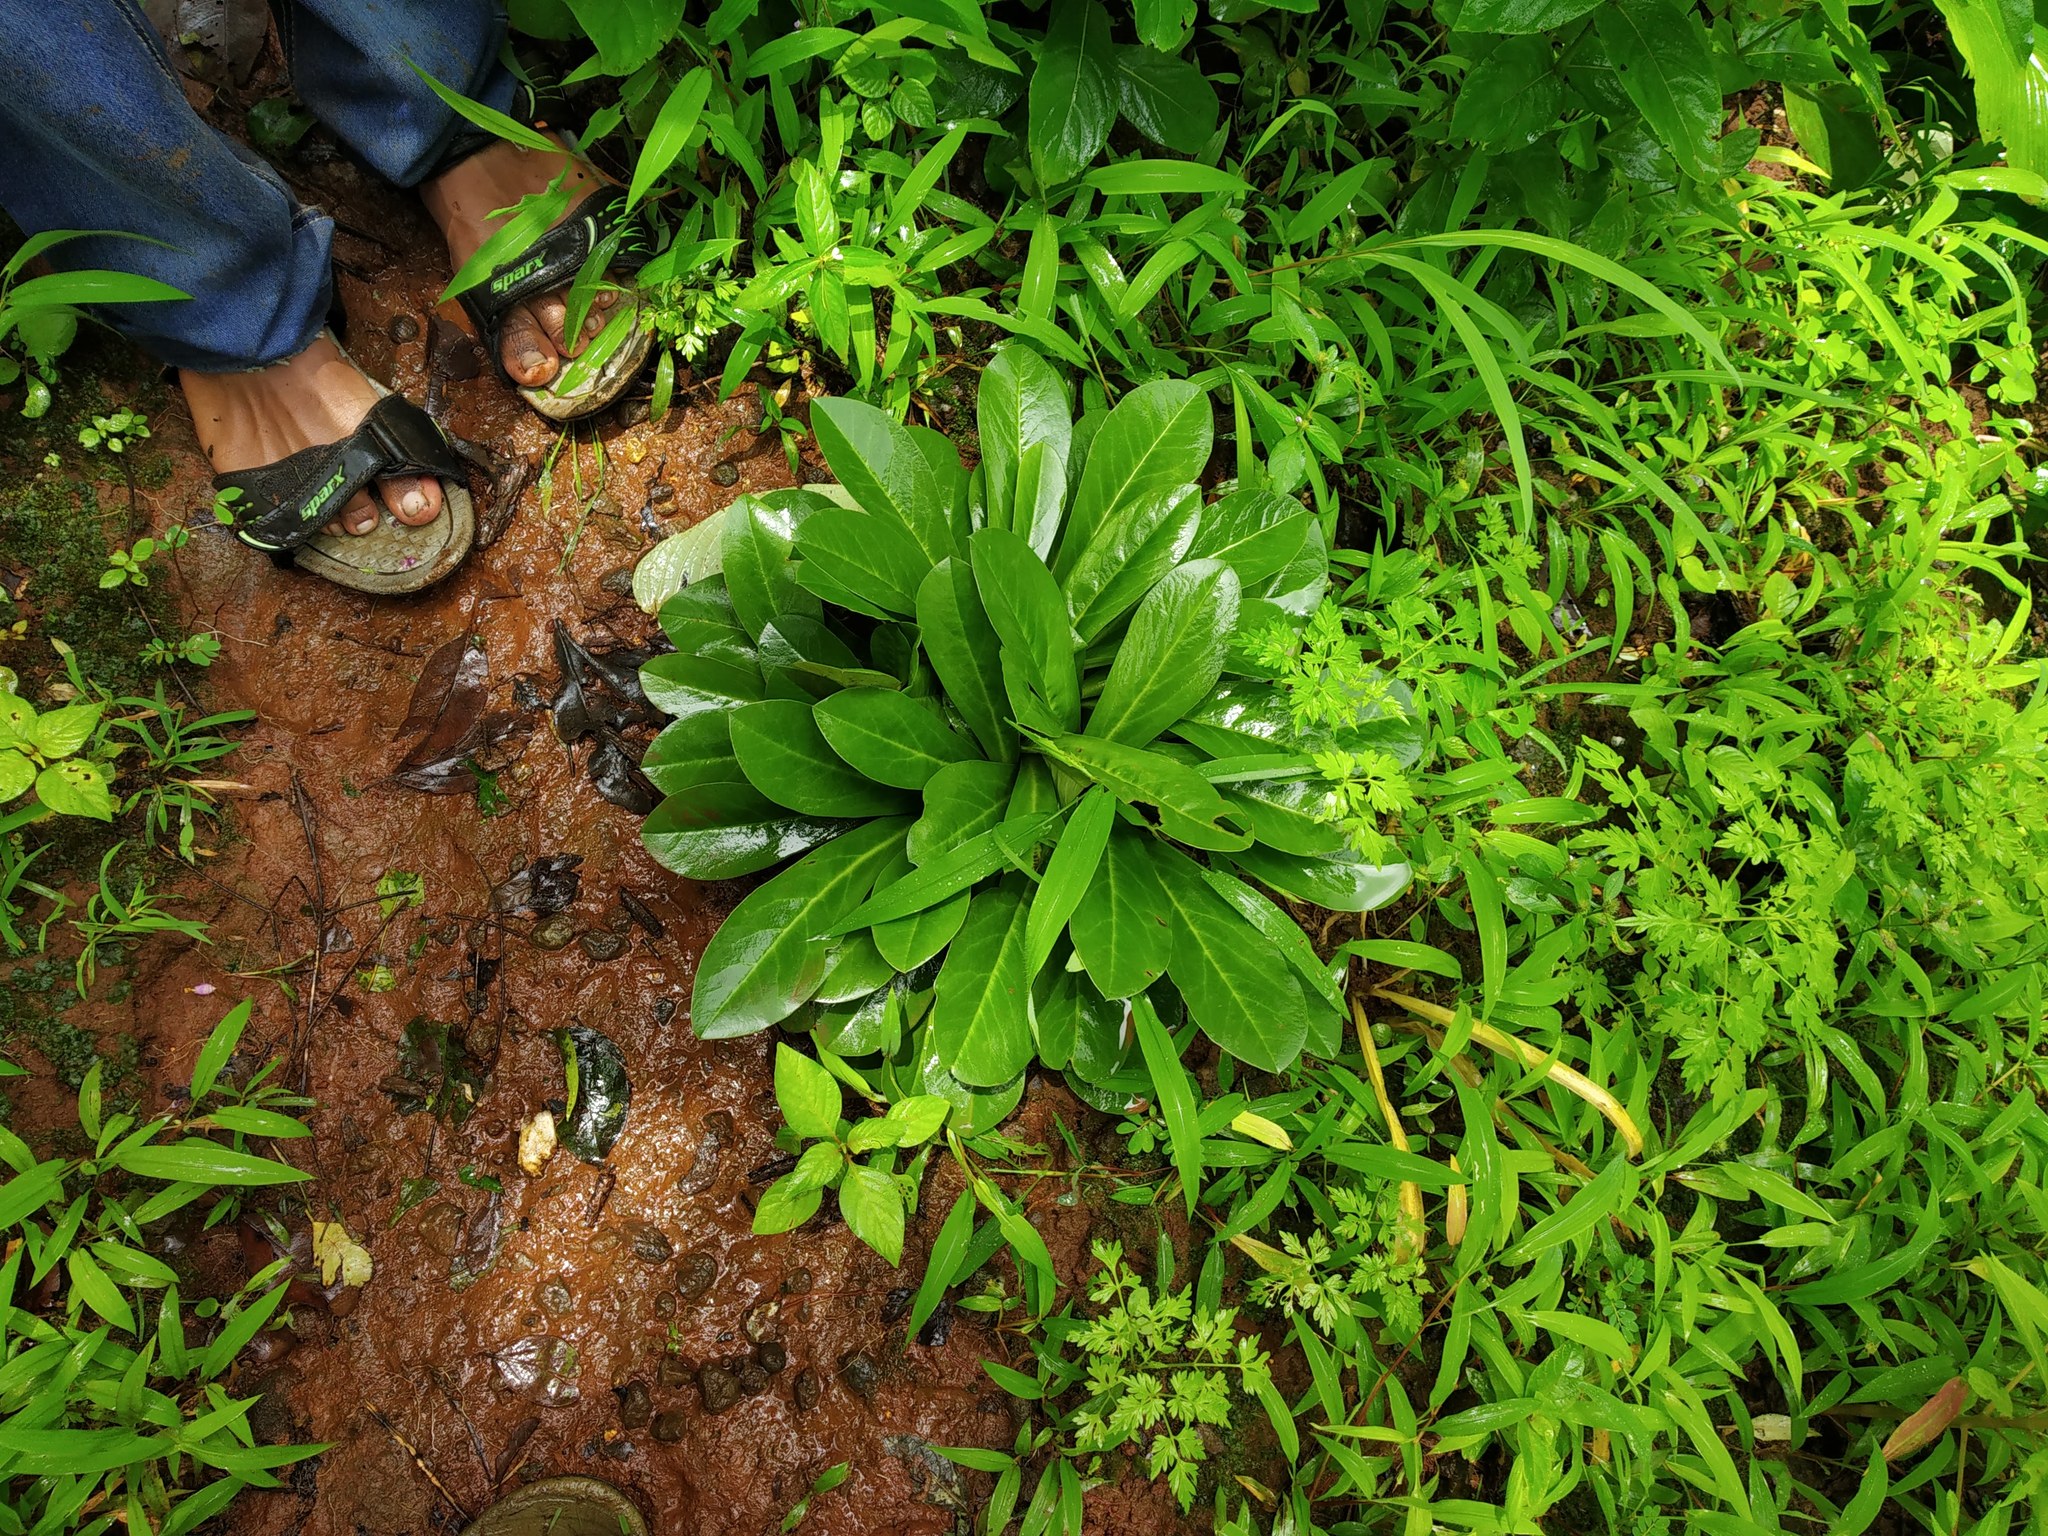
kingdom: Plantae
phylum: Tracheophyta
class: Magnoliopsida
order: Malpighiales
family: Euphorbiaceae
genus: Euphorbia
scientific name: Euphorbia fusiformis
